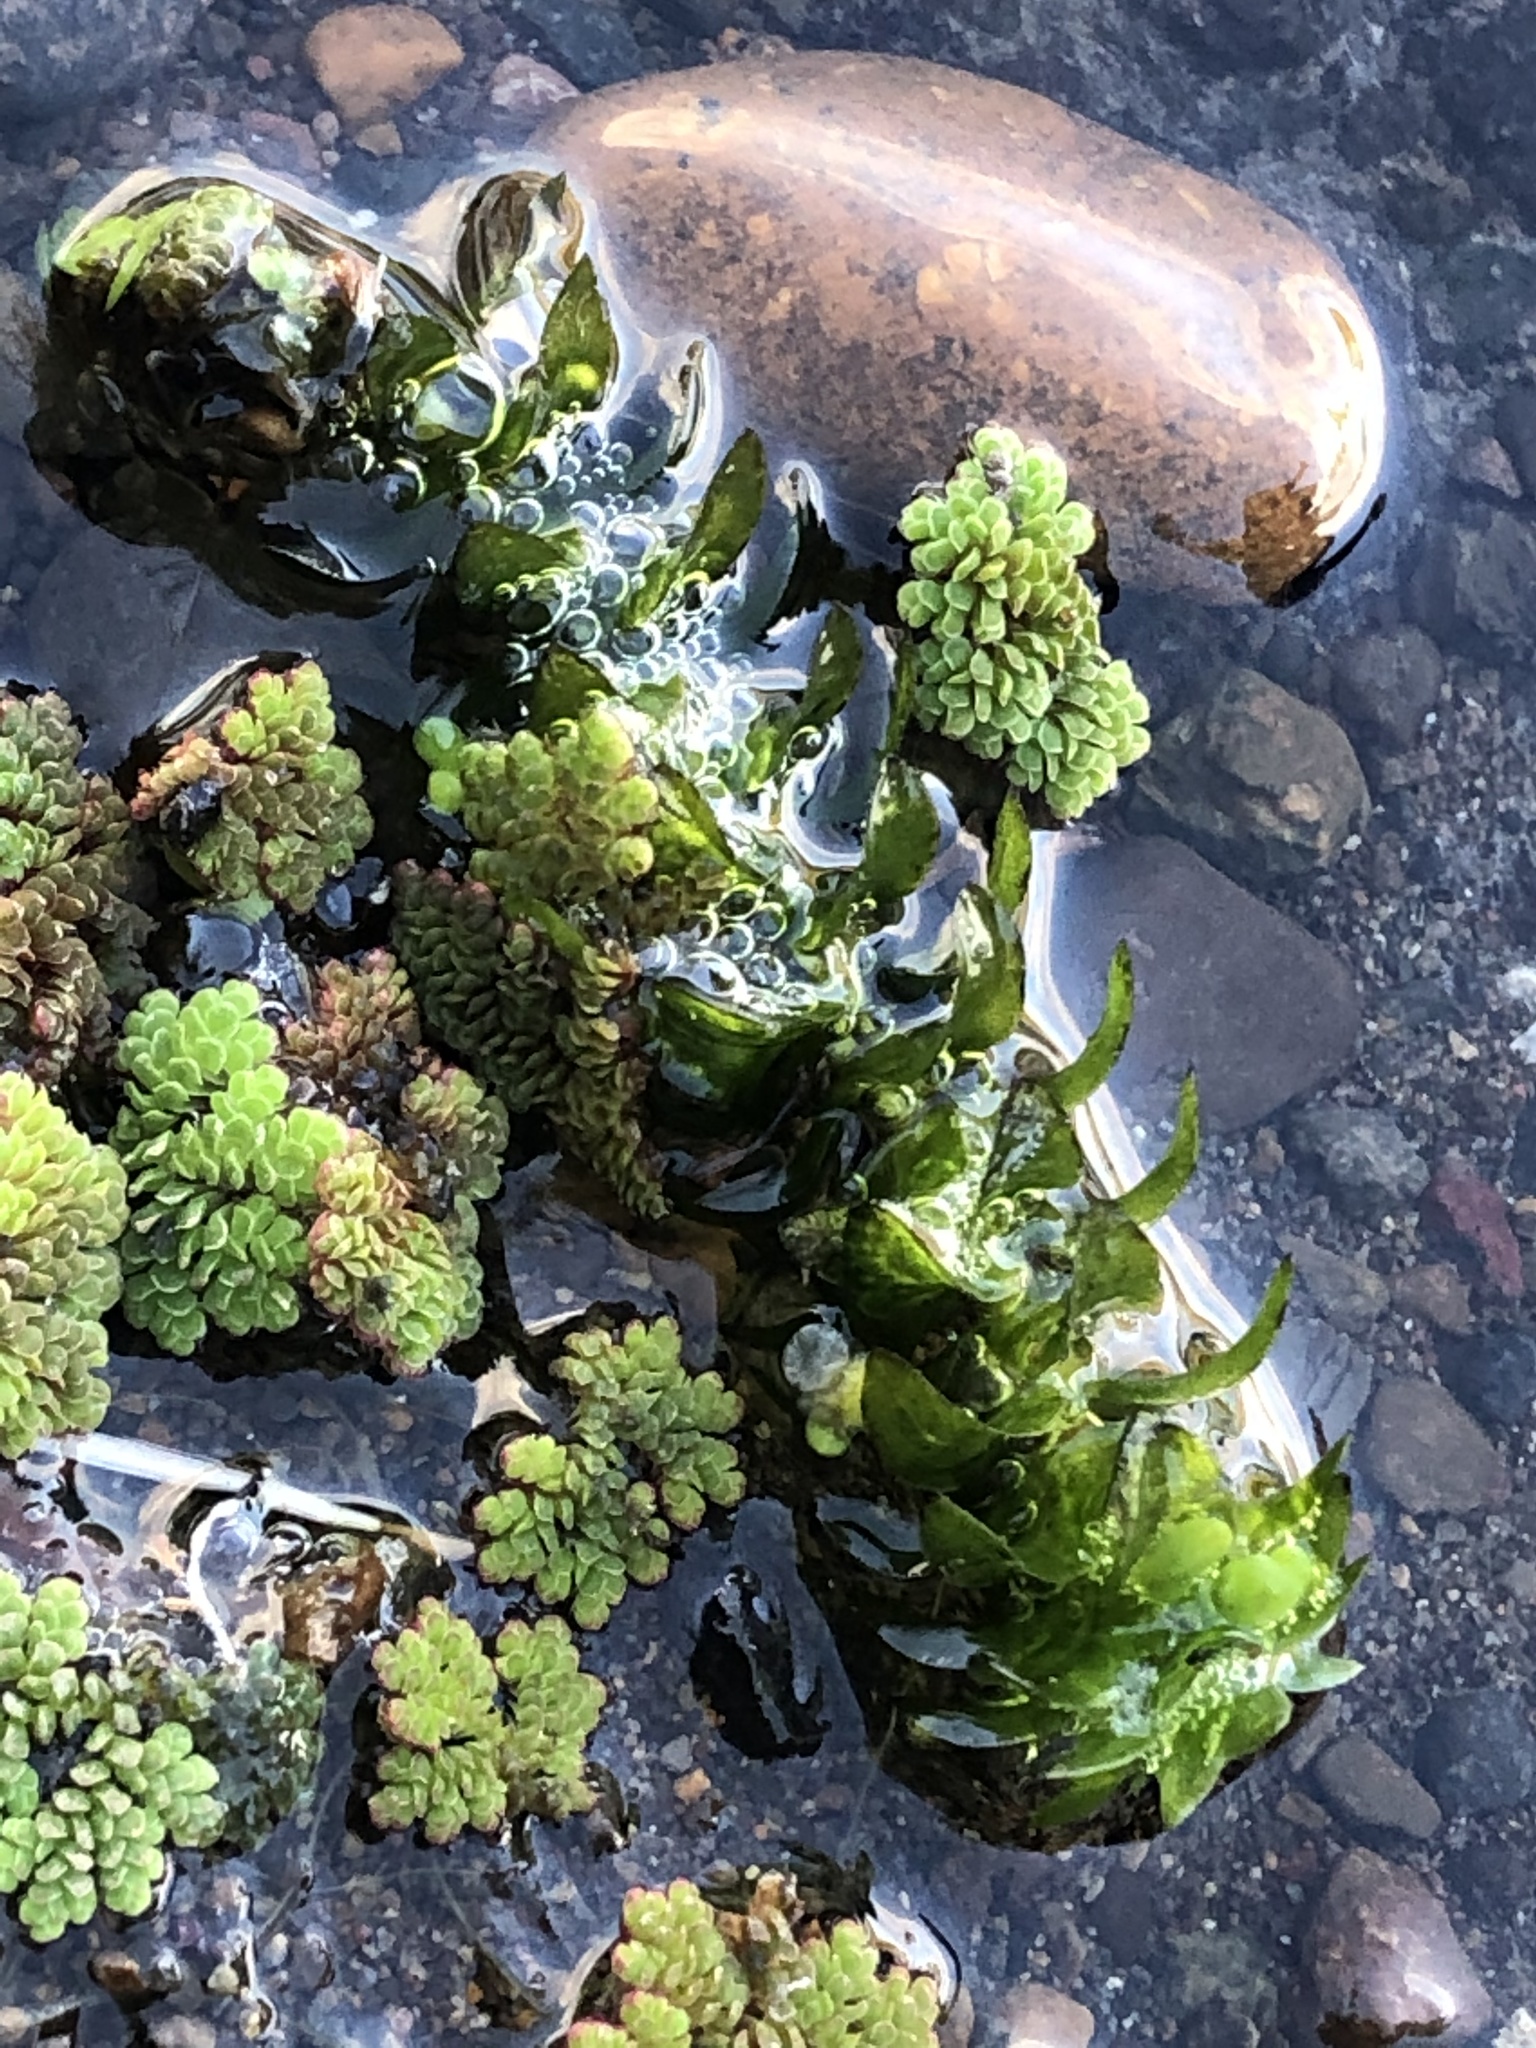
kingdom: Plantae
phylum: Tracheophyta
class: Liliopsida
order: Alismatales
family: Hydrocharitaceae
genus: Elodea
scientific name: Elodea canadensis
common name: Canadian waterweed
